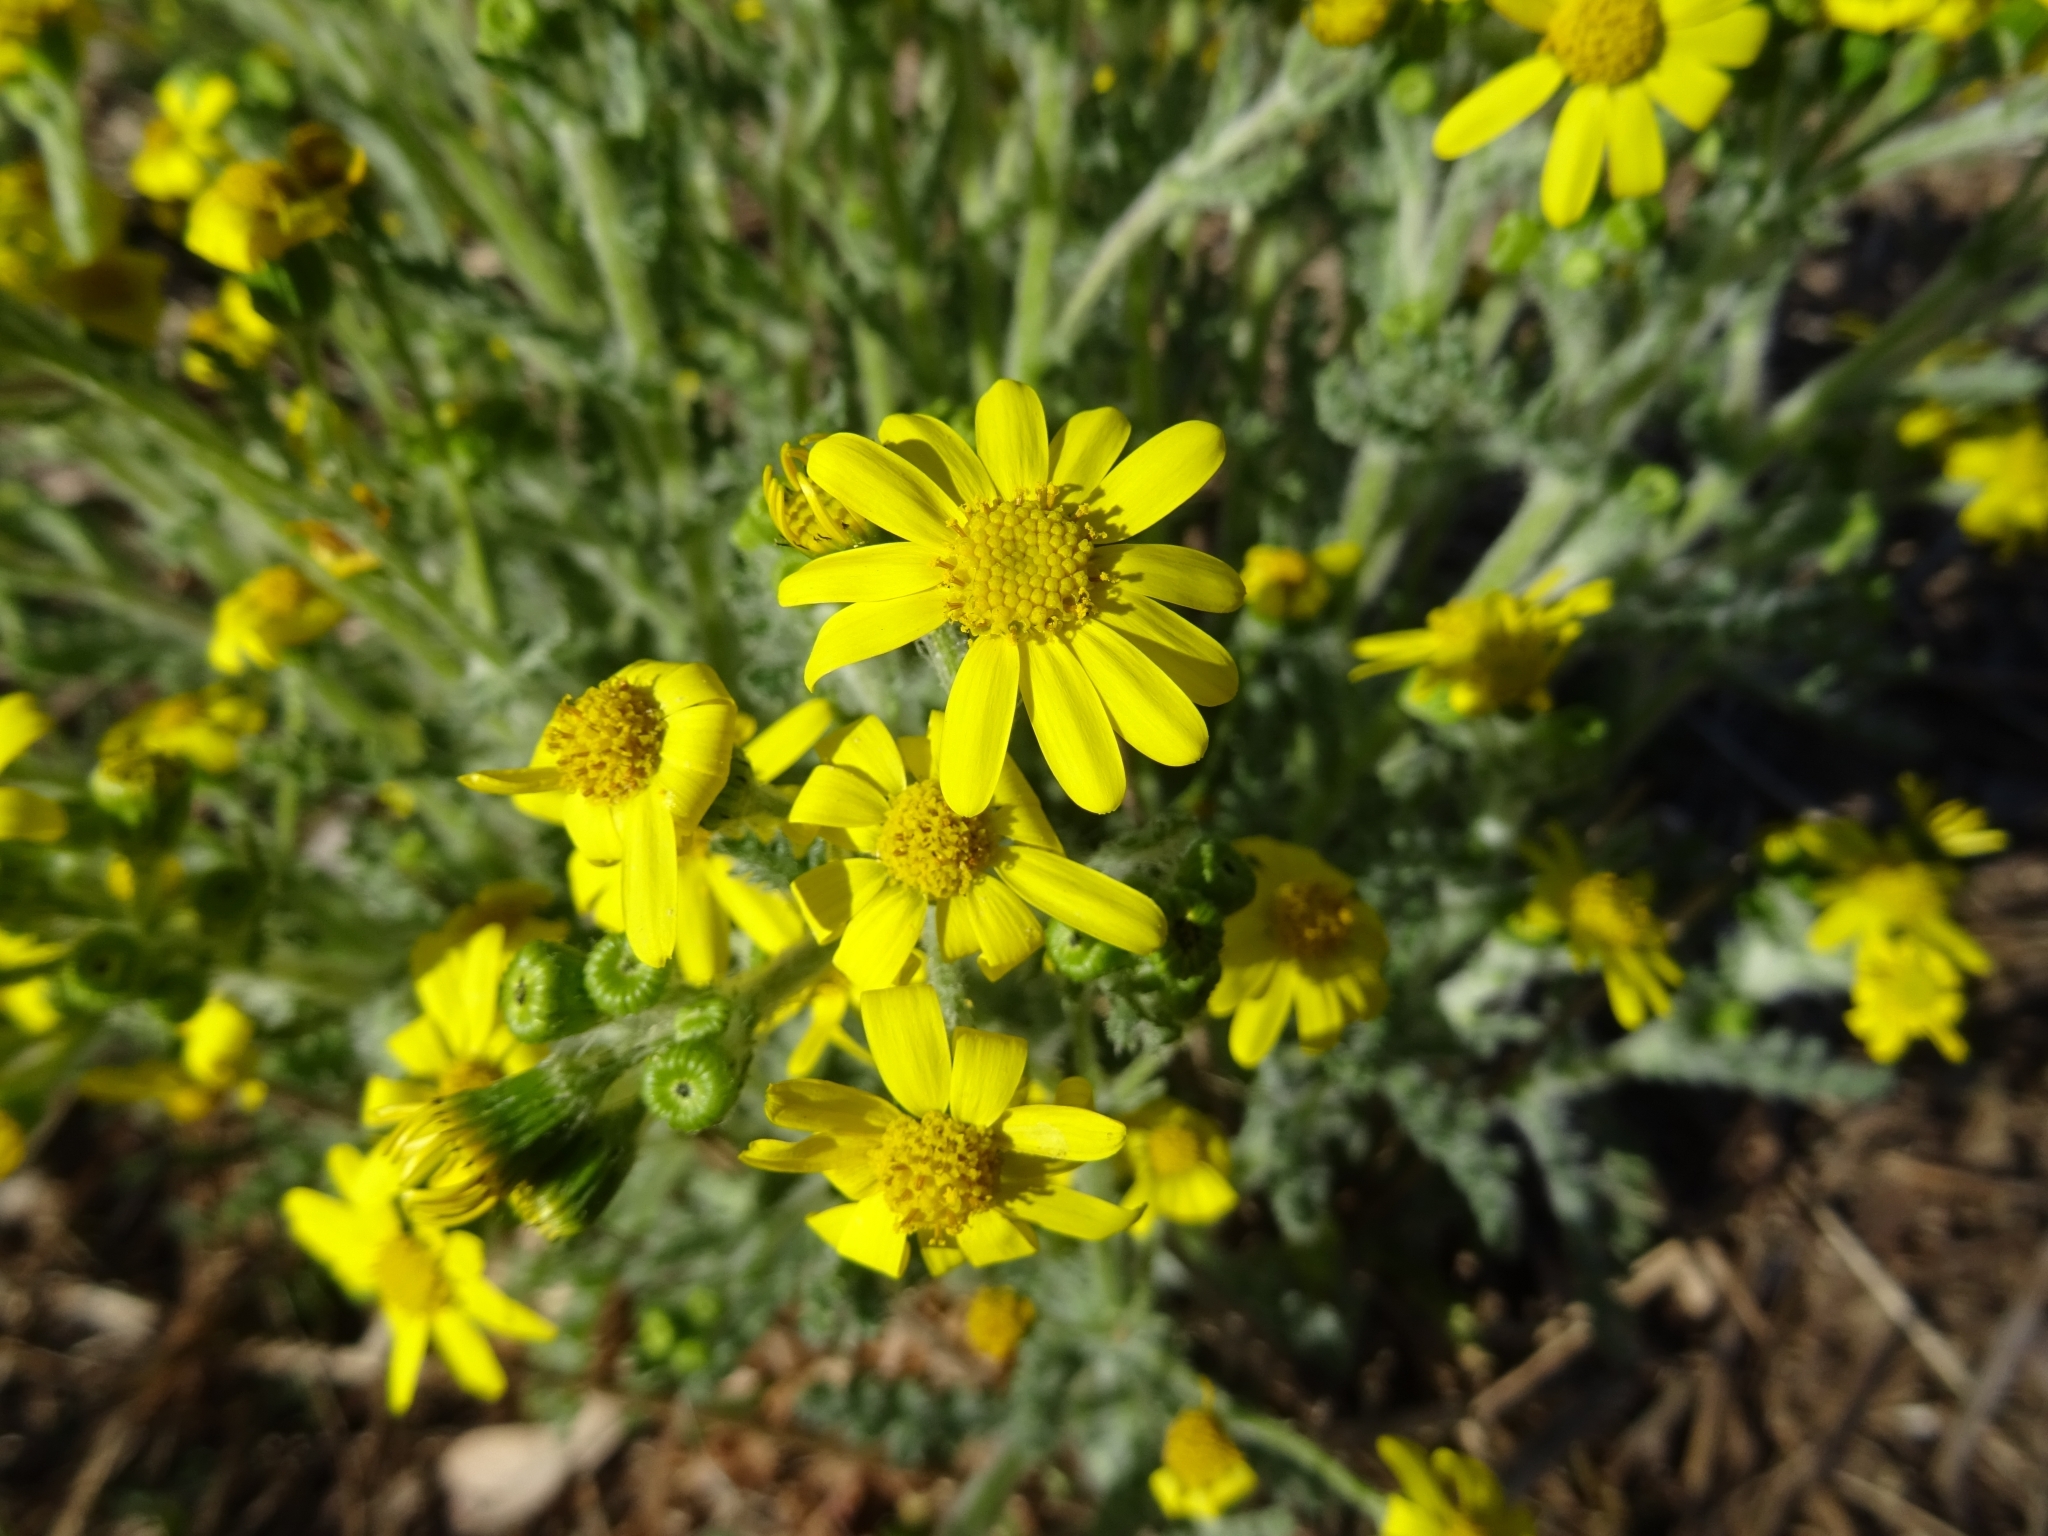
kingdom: Plantae
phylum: Tracheophyta
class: Magnoliopsida
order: Asterales
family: Asteraceae
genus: Senecio
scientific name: Senecio vernalis
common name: Eastern groundsel
